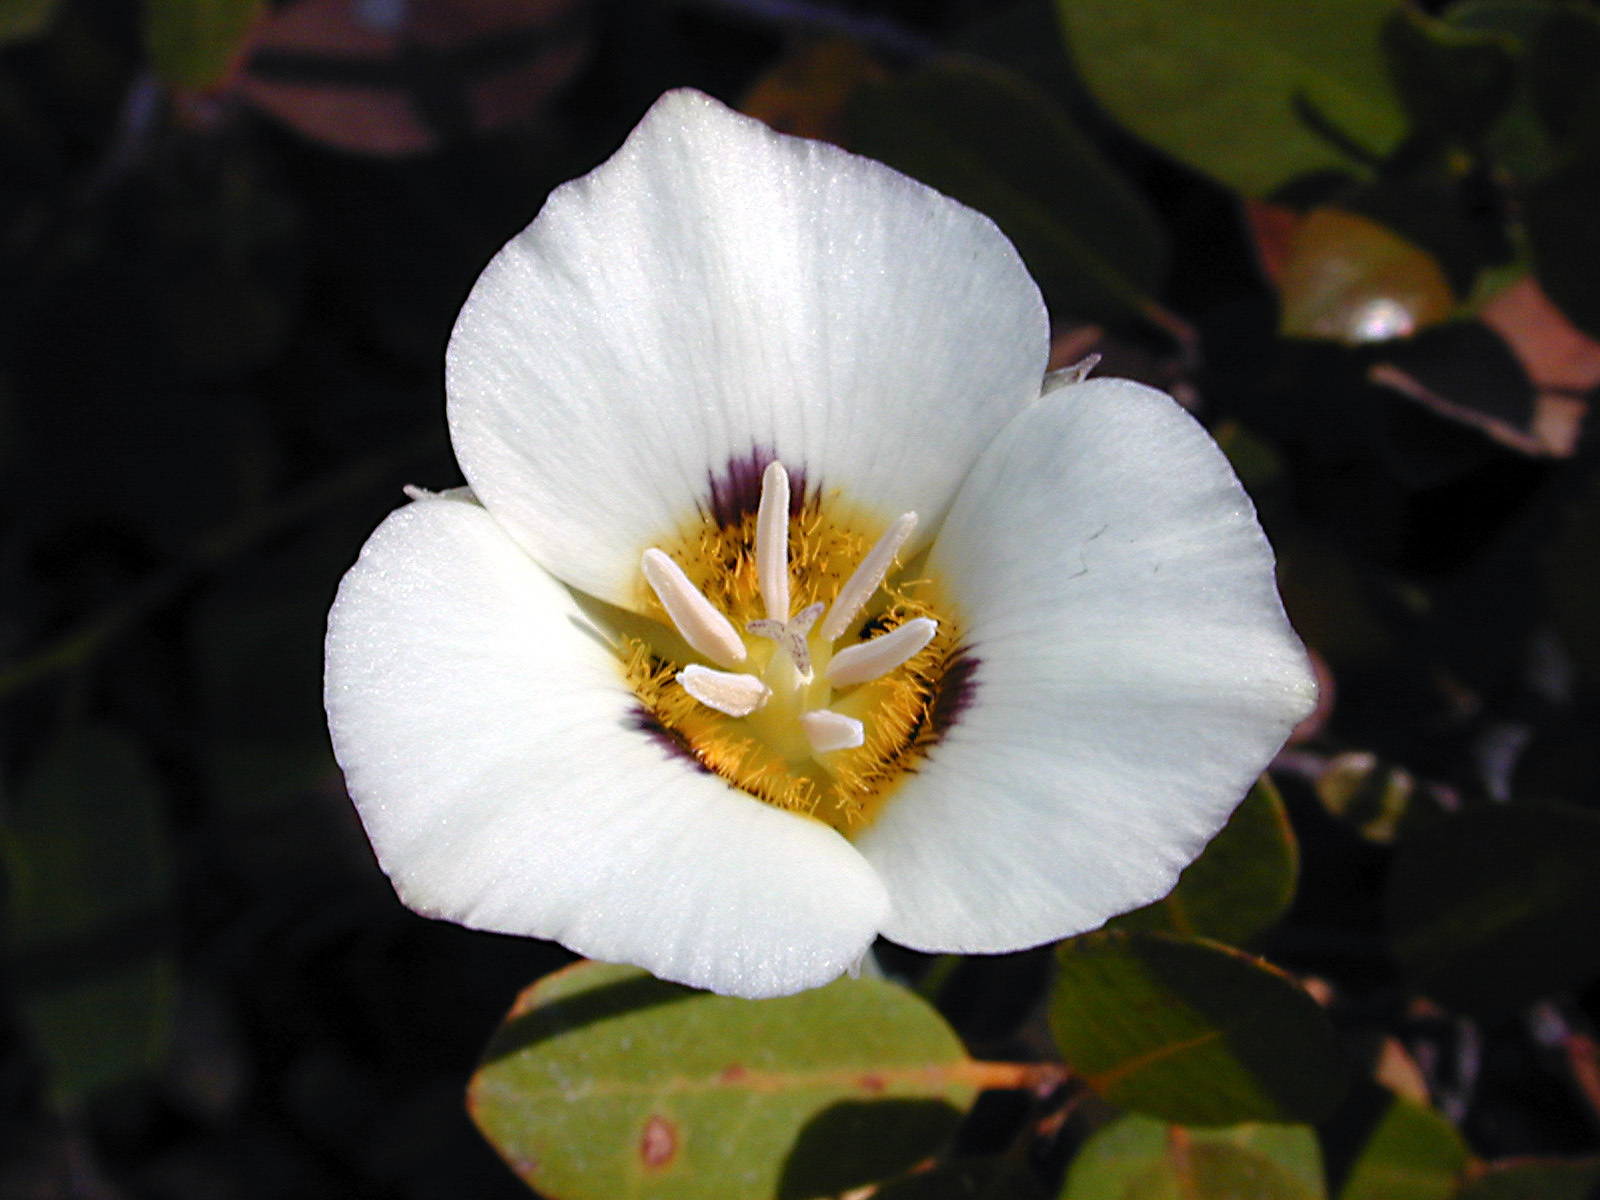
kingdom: Plantae
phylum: Tracheophyta
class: Liliopsida
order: Liliales
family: Liliaceae
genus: Calochortus
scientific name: Calochortus leichtlinii
